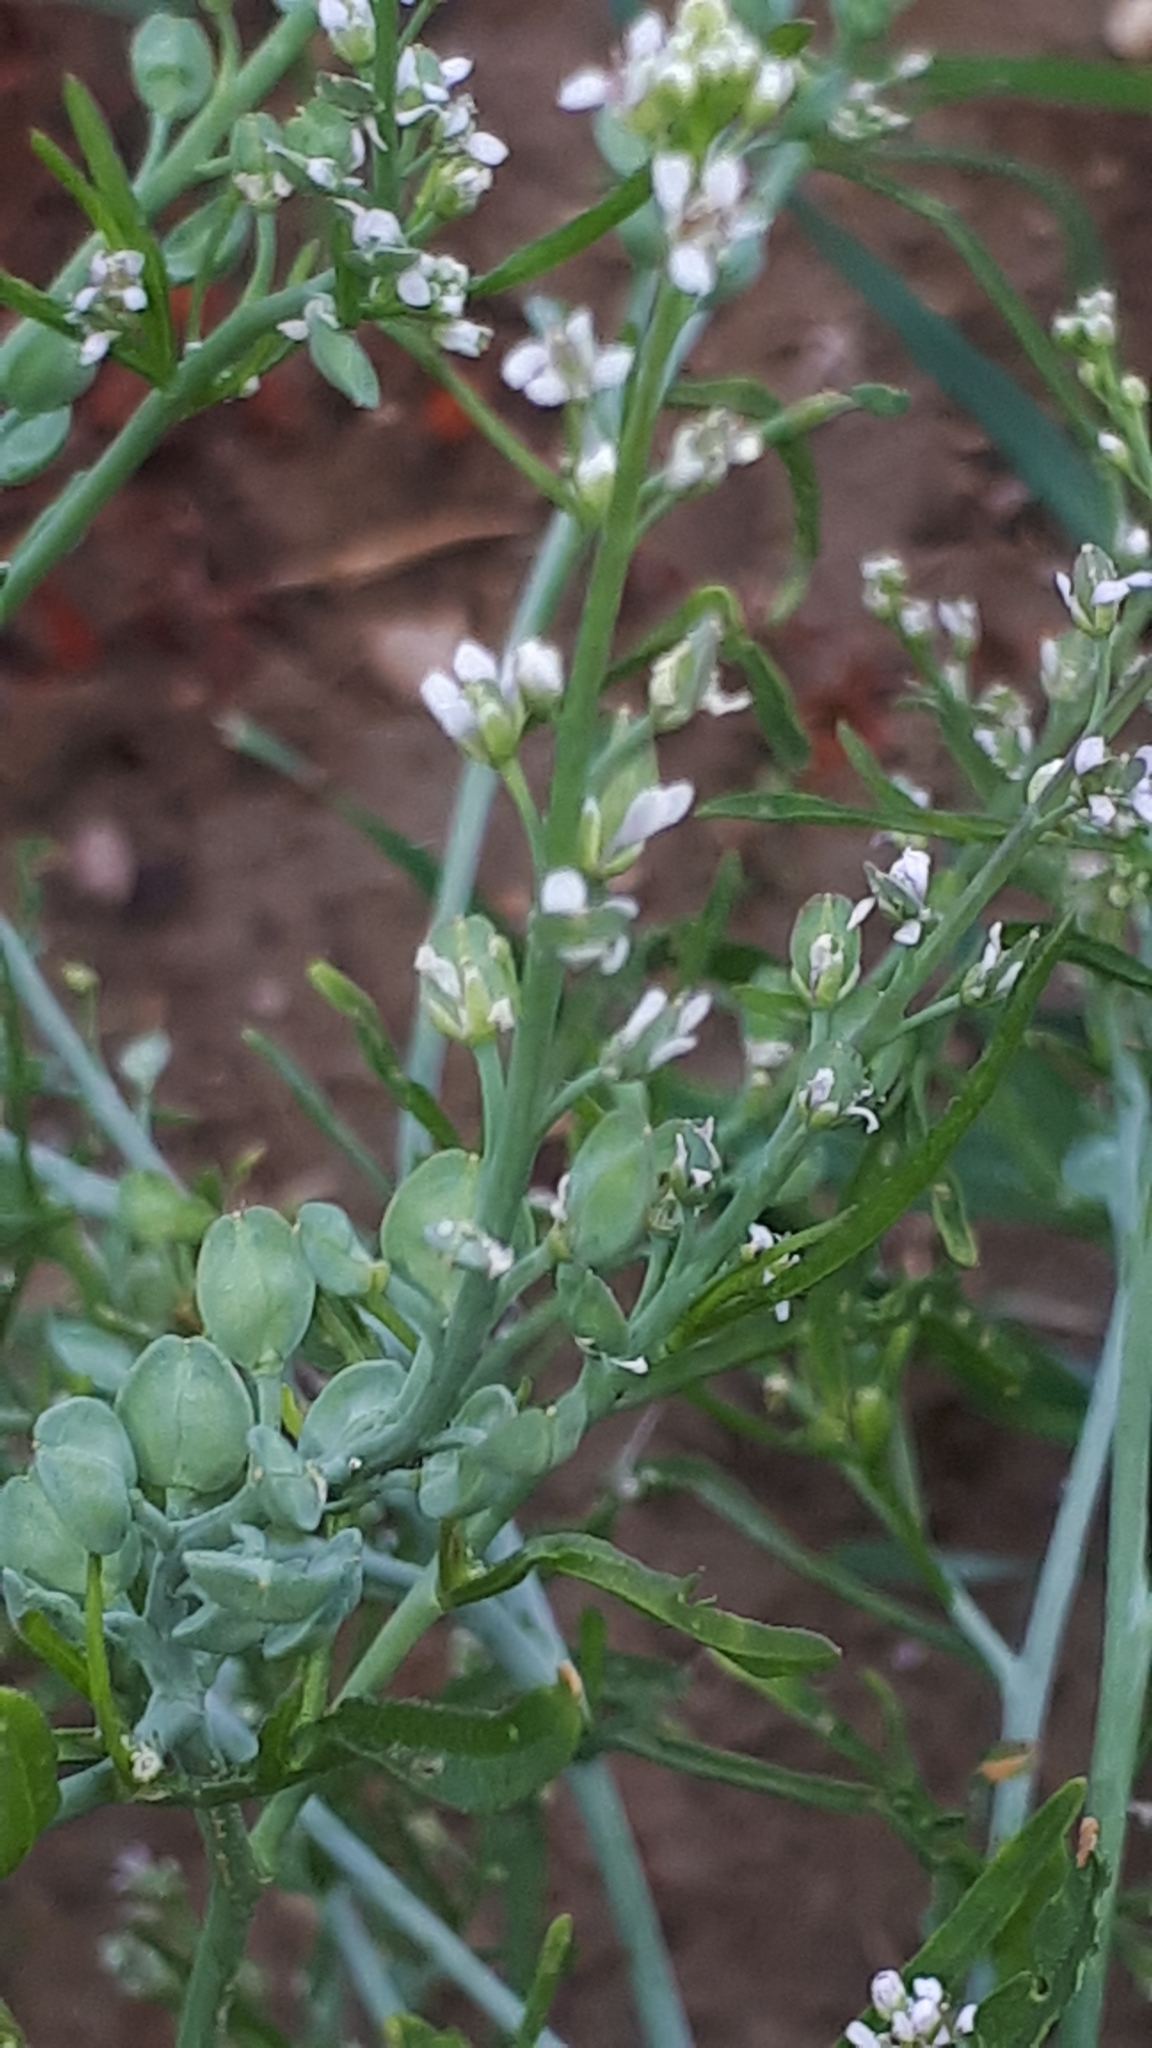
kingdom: Plantae
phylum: Tracheophyta
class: Magnoliopsida
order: Brassicales
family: Brassicaceae
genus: Lepidium
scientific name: Lepidium sativum
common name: Garden cress
